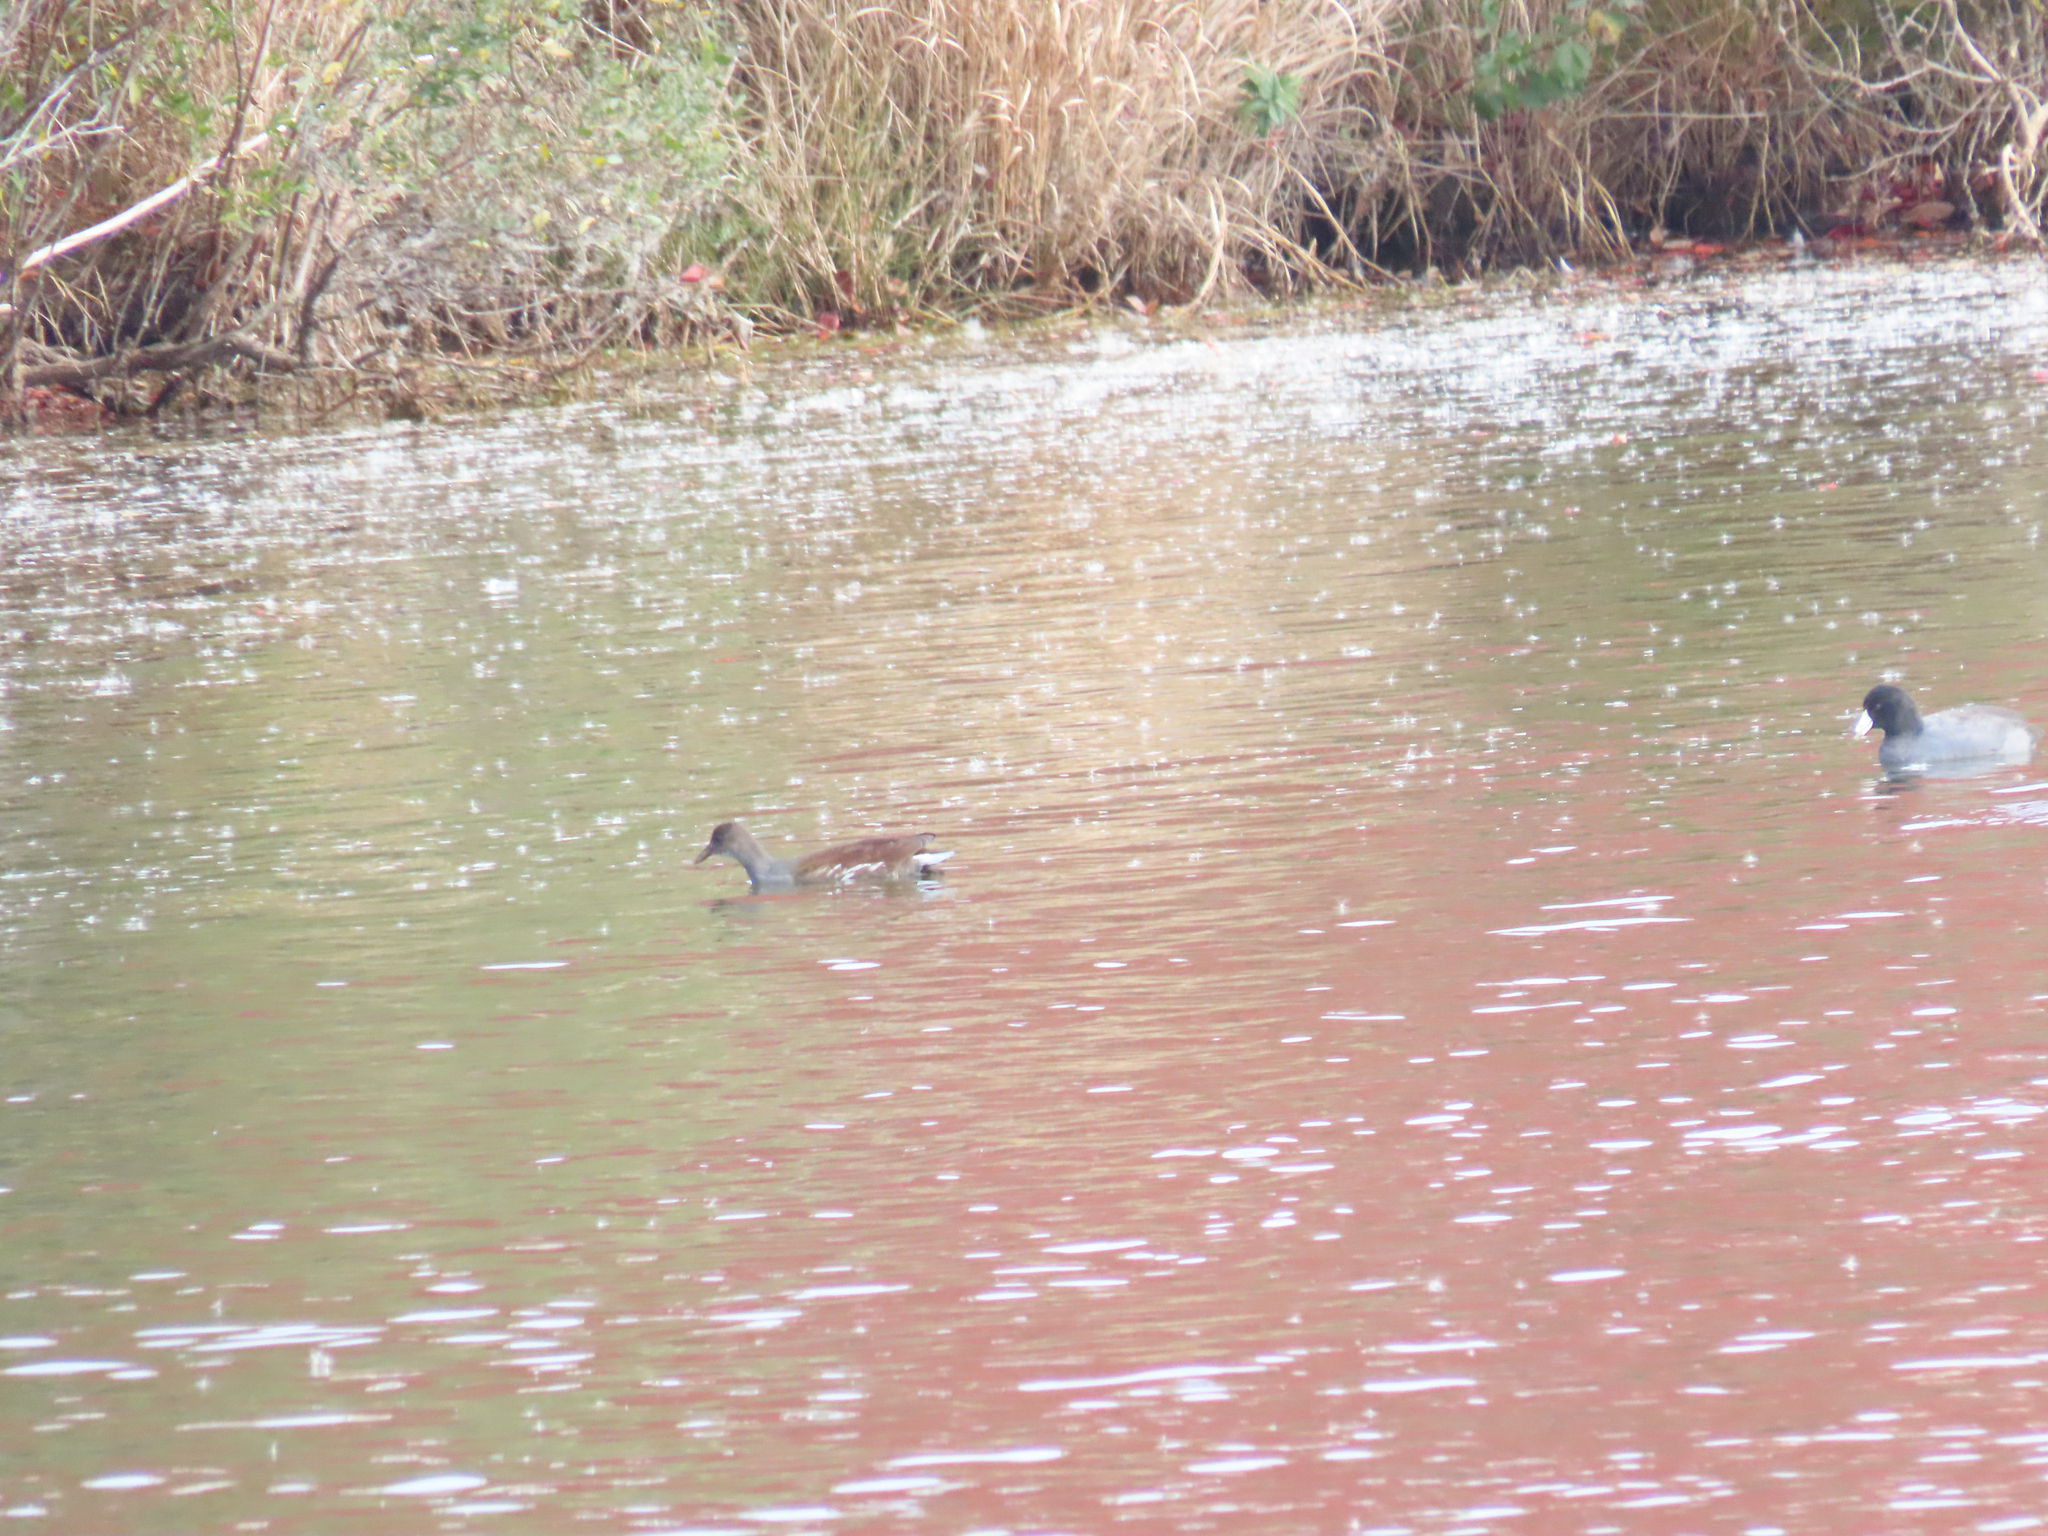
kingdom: Animalia
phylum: Chordata
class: Aves
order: Gruiformes
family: Rallidae
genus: Gallinula
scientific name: Gallinula chloropus
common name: Common moorhen
